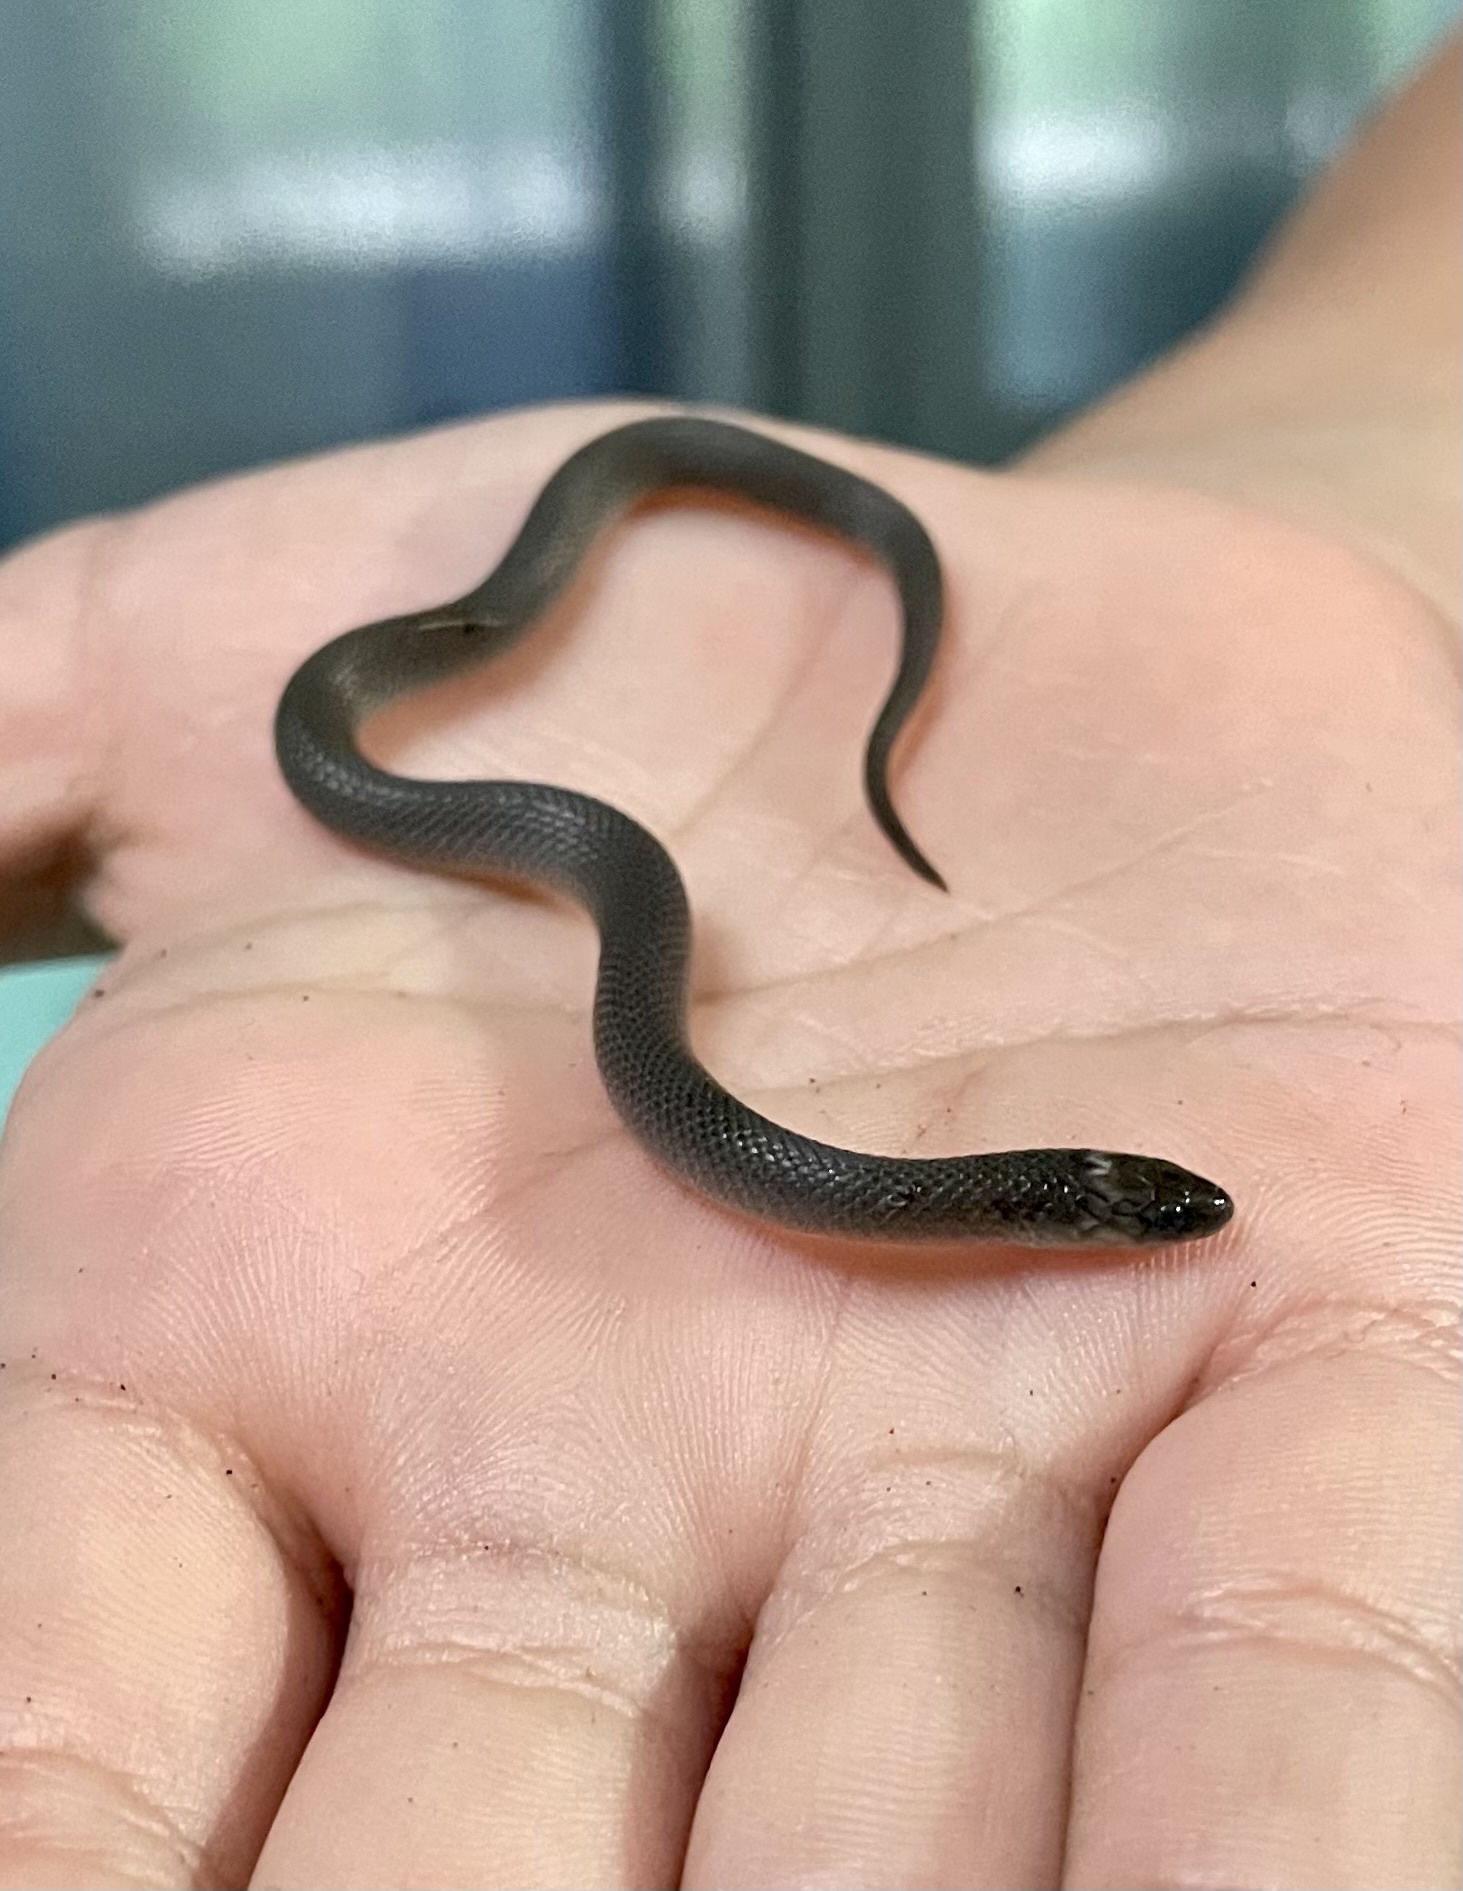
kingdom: Animalia
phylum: Chordata
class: Squamata
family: Colubridae
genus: Haldea
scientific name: Haldea striatula
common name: Rough earth snake
